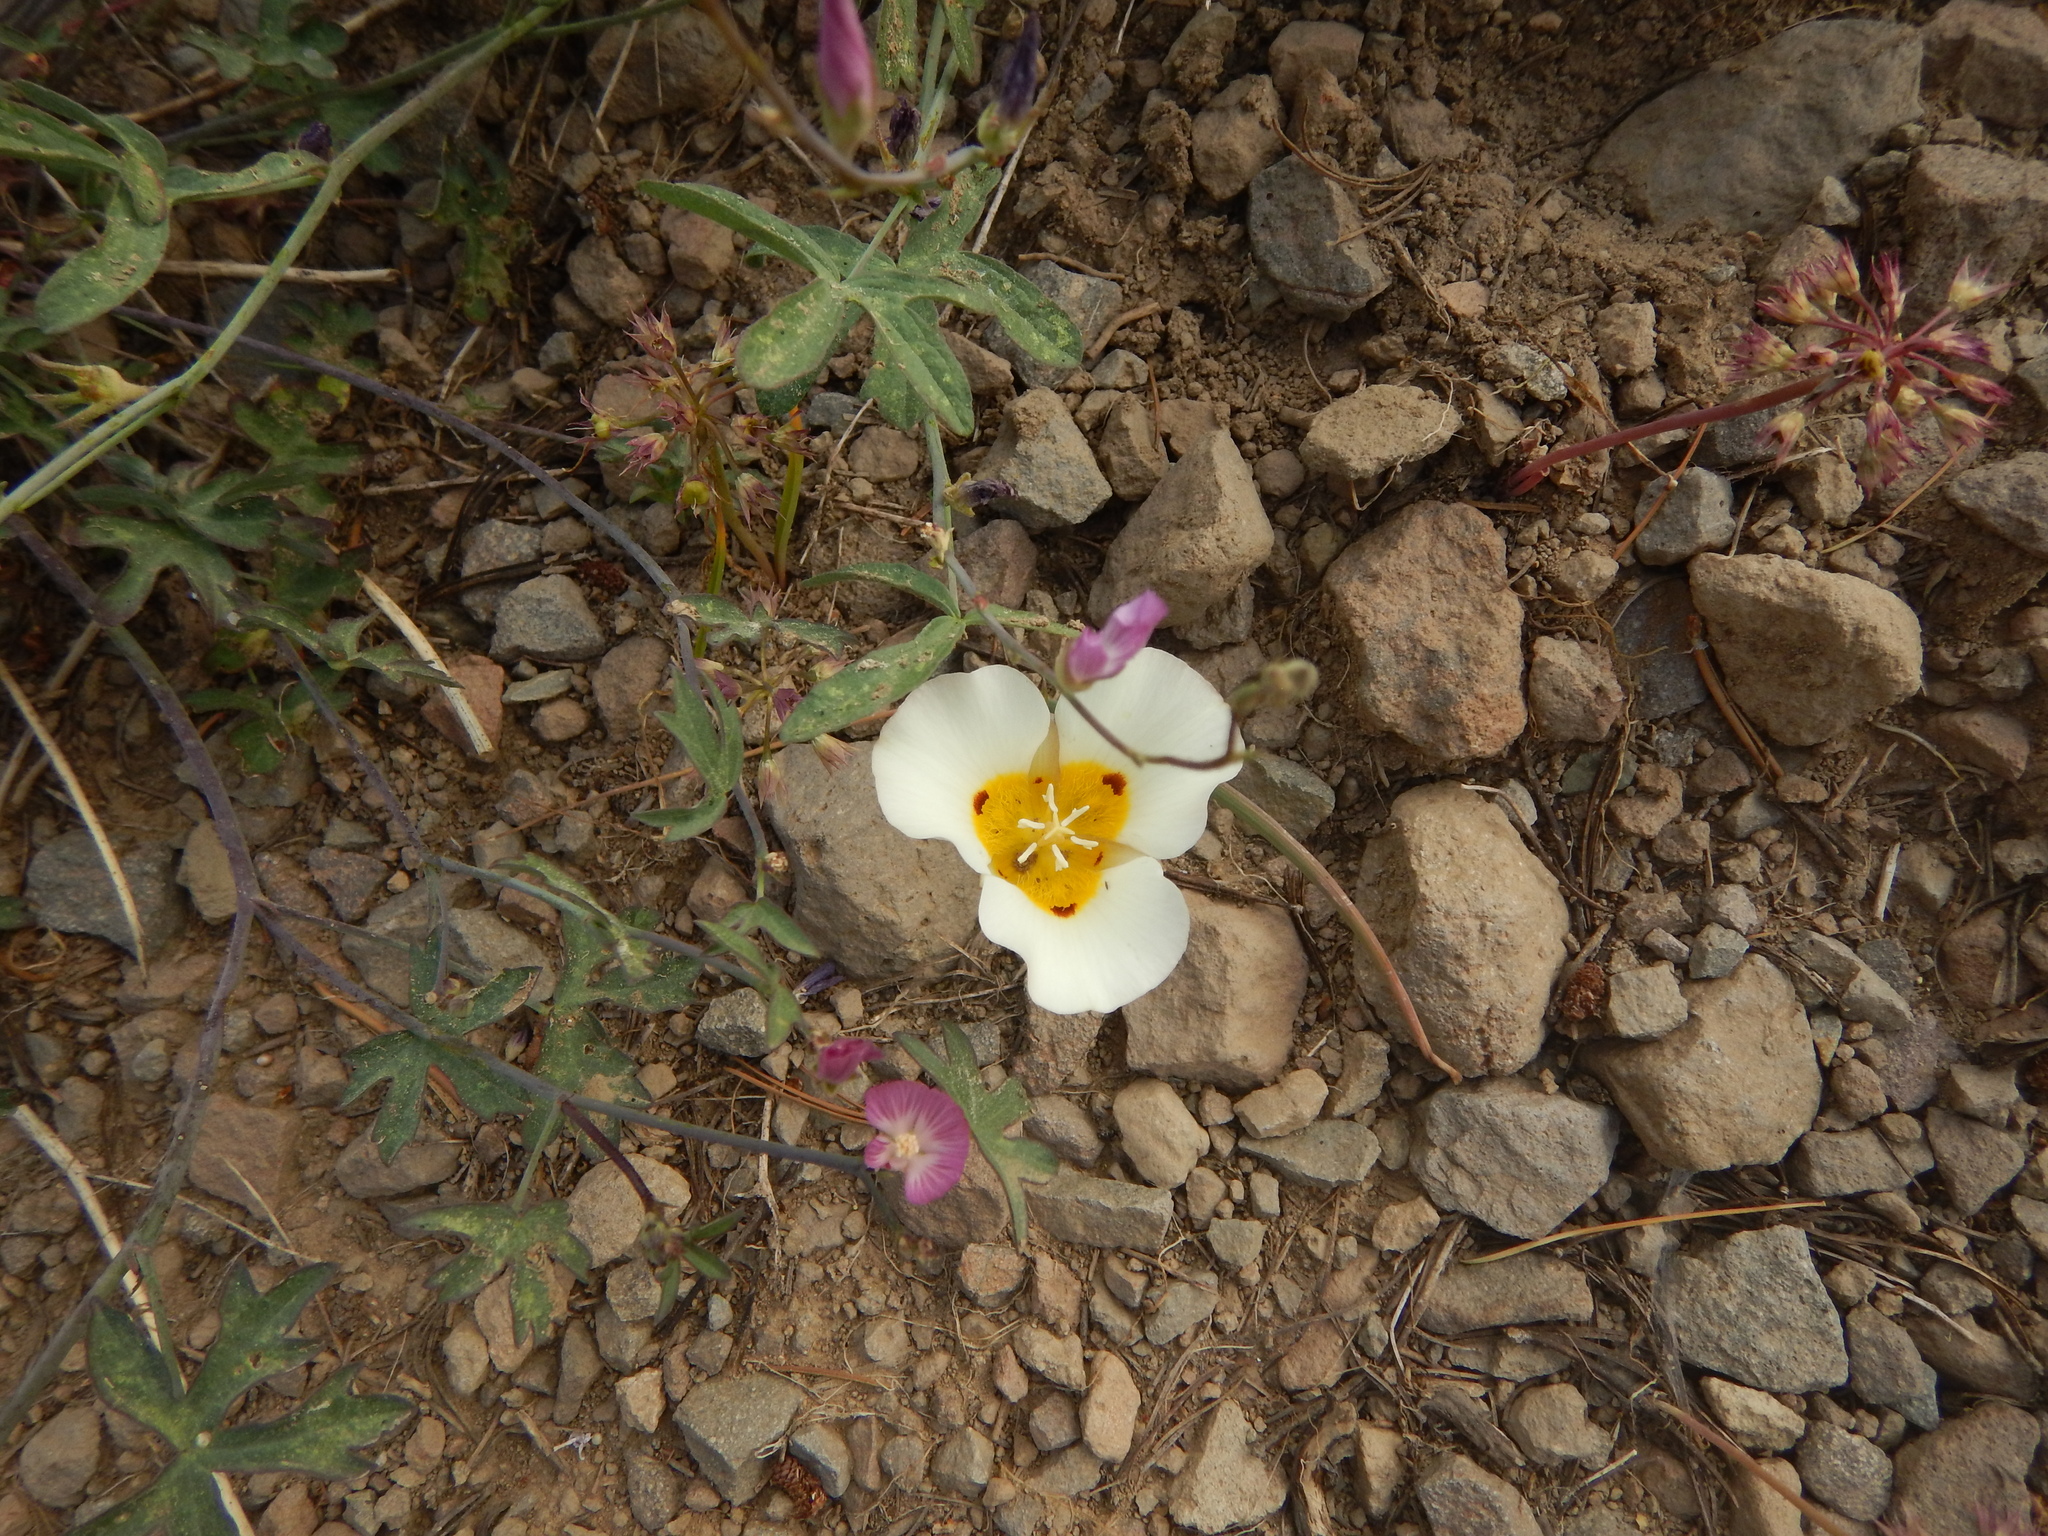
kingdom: Plantae
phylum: Tracheophyta
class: Liliopsida
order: Liliales
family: Liliaceae
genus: Calochortus
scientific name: Calochortus leichtlinii
